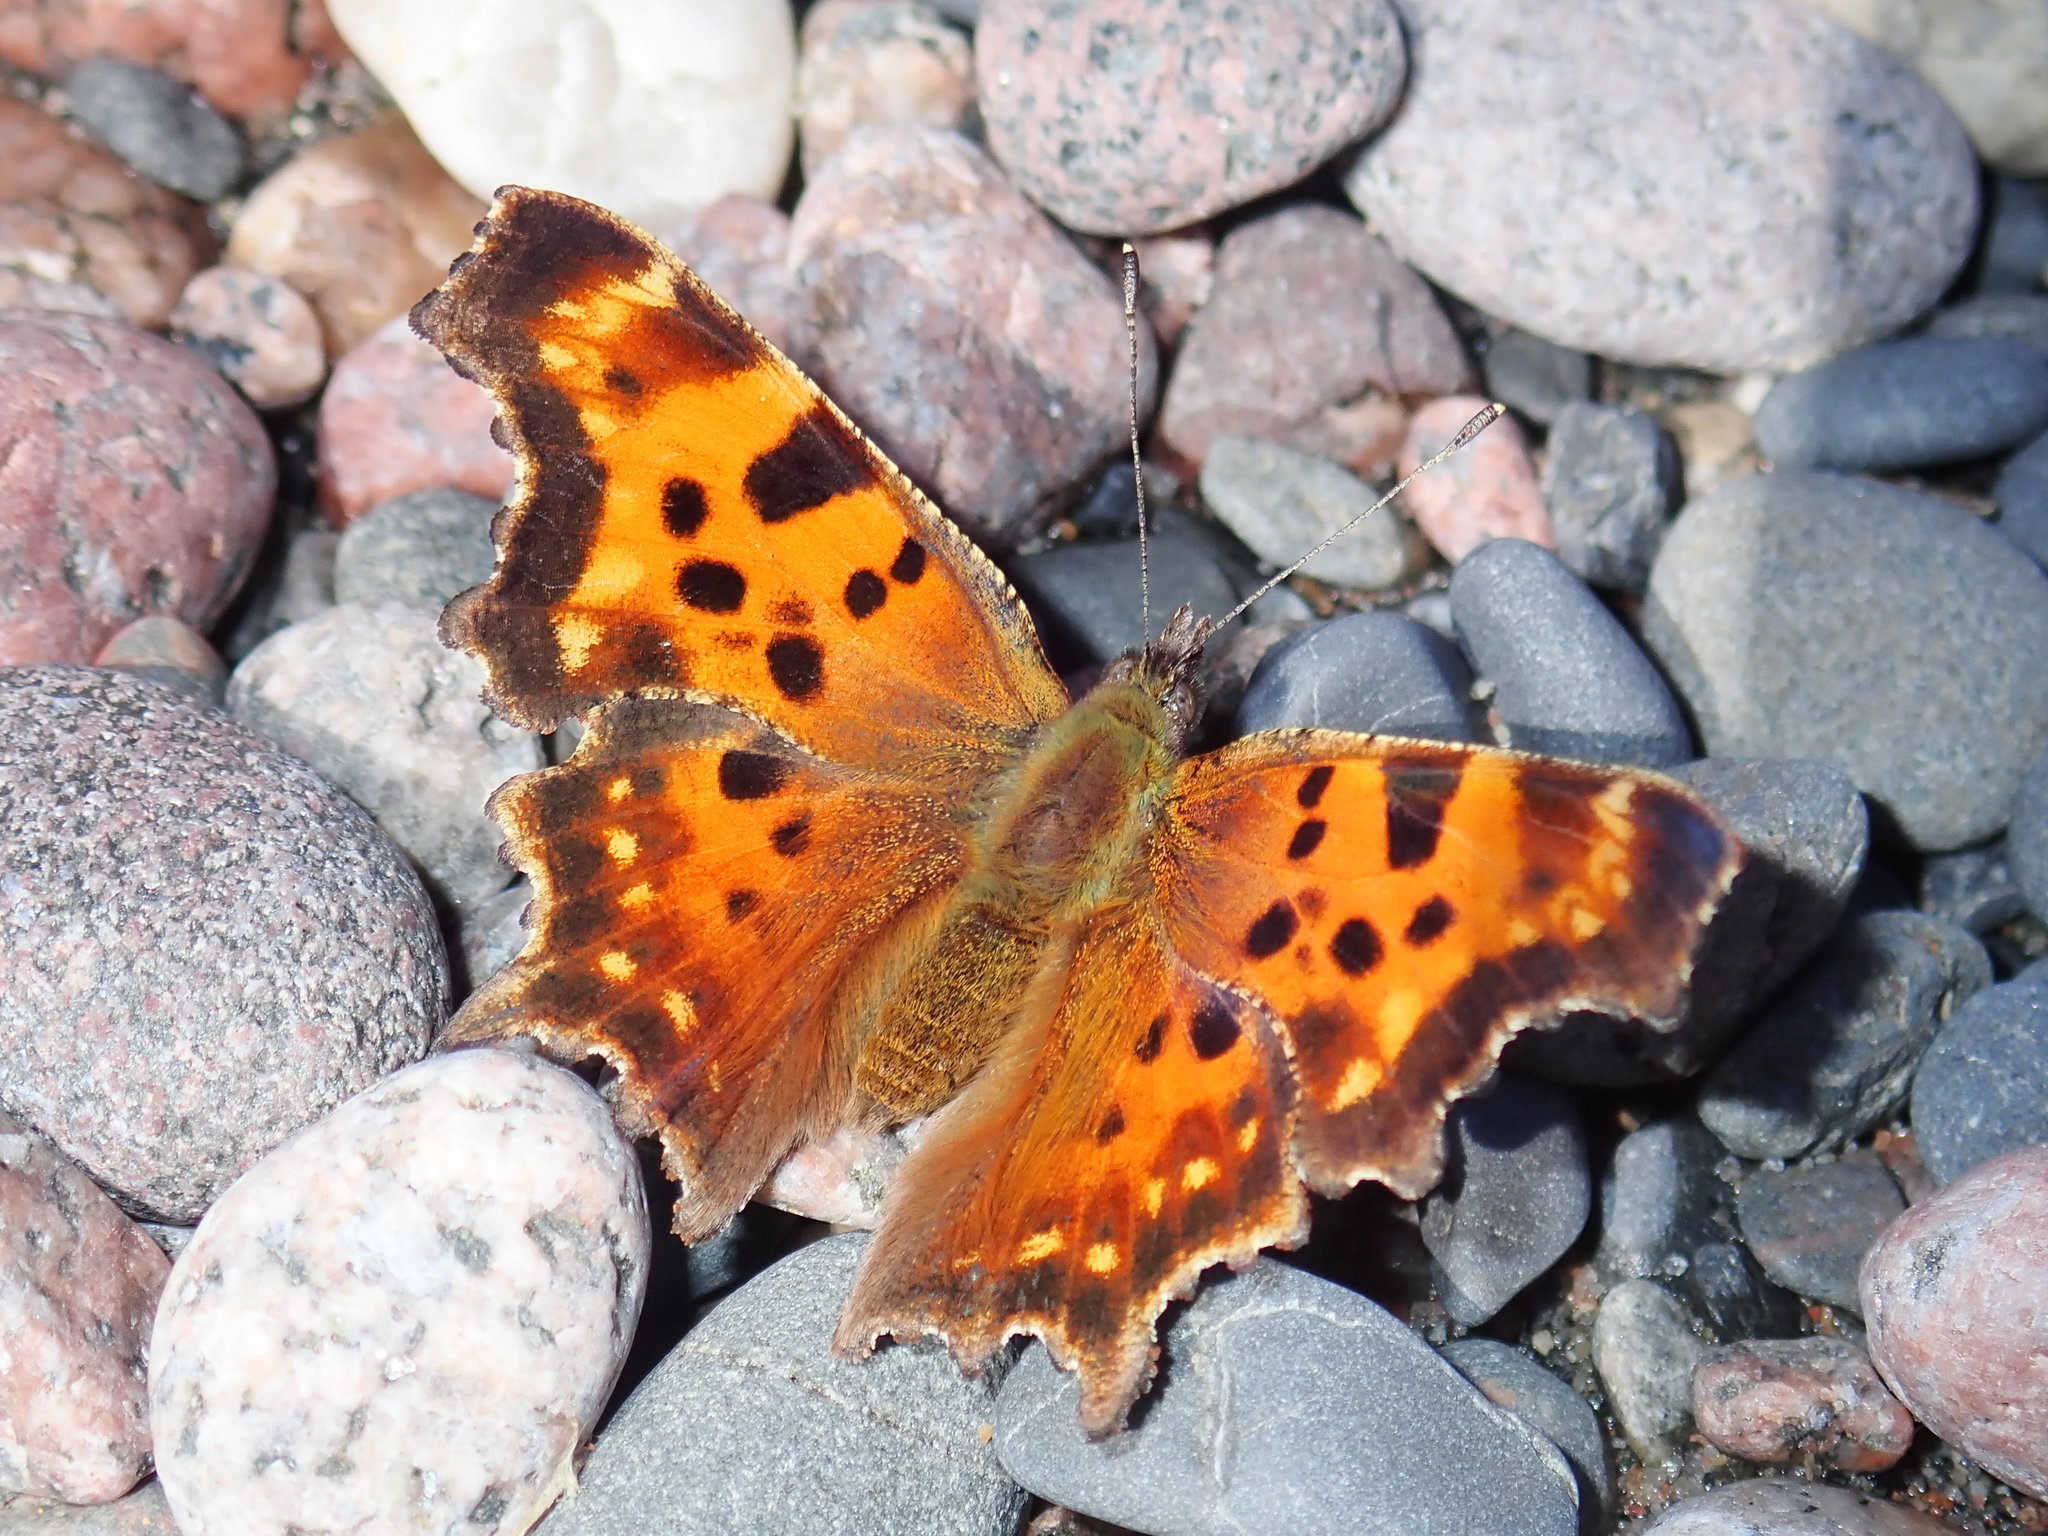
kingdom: Animalia
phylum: Arthropoda
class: Insecta
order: Lepidoptera
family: Nymphalidae
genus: Polygonia
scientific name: Polygonia faunus
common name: Green comma
